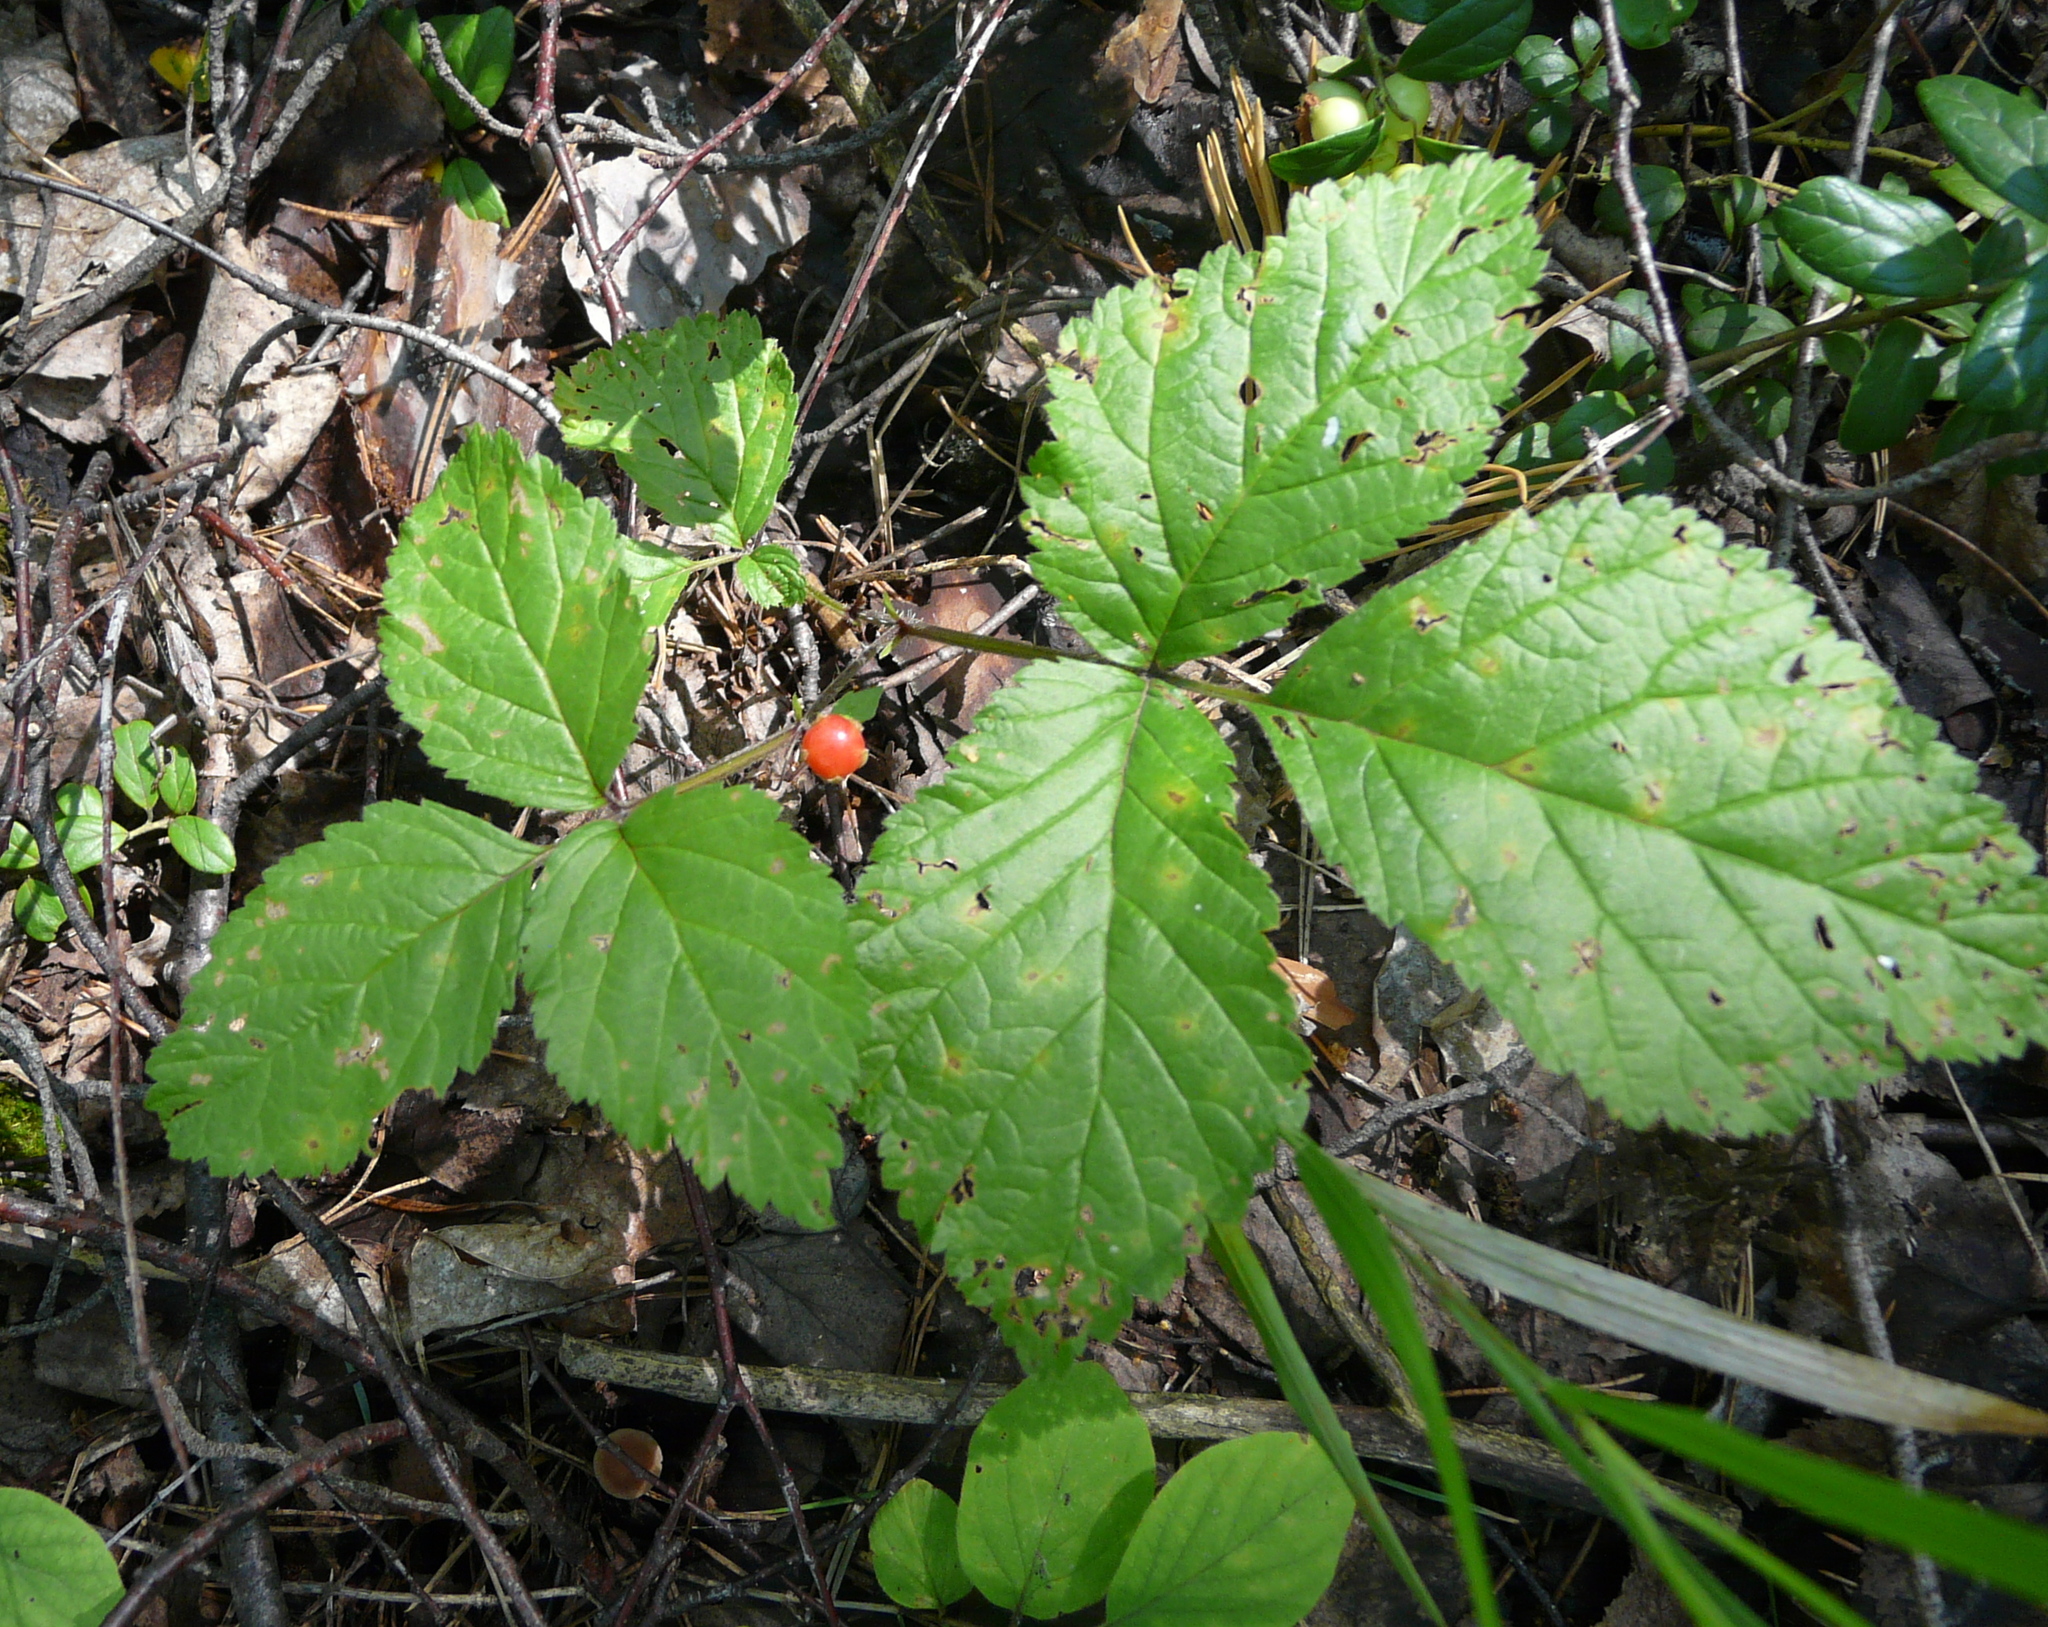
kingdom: Plantae
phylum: Tracheophyta
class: Magnoliopsida
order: Rosales
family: Rosaceae
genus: Rubus
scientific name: Rubus saxatilis
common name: Stone bramble
